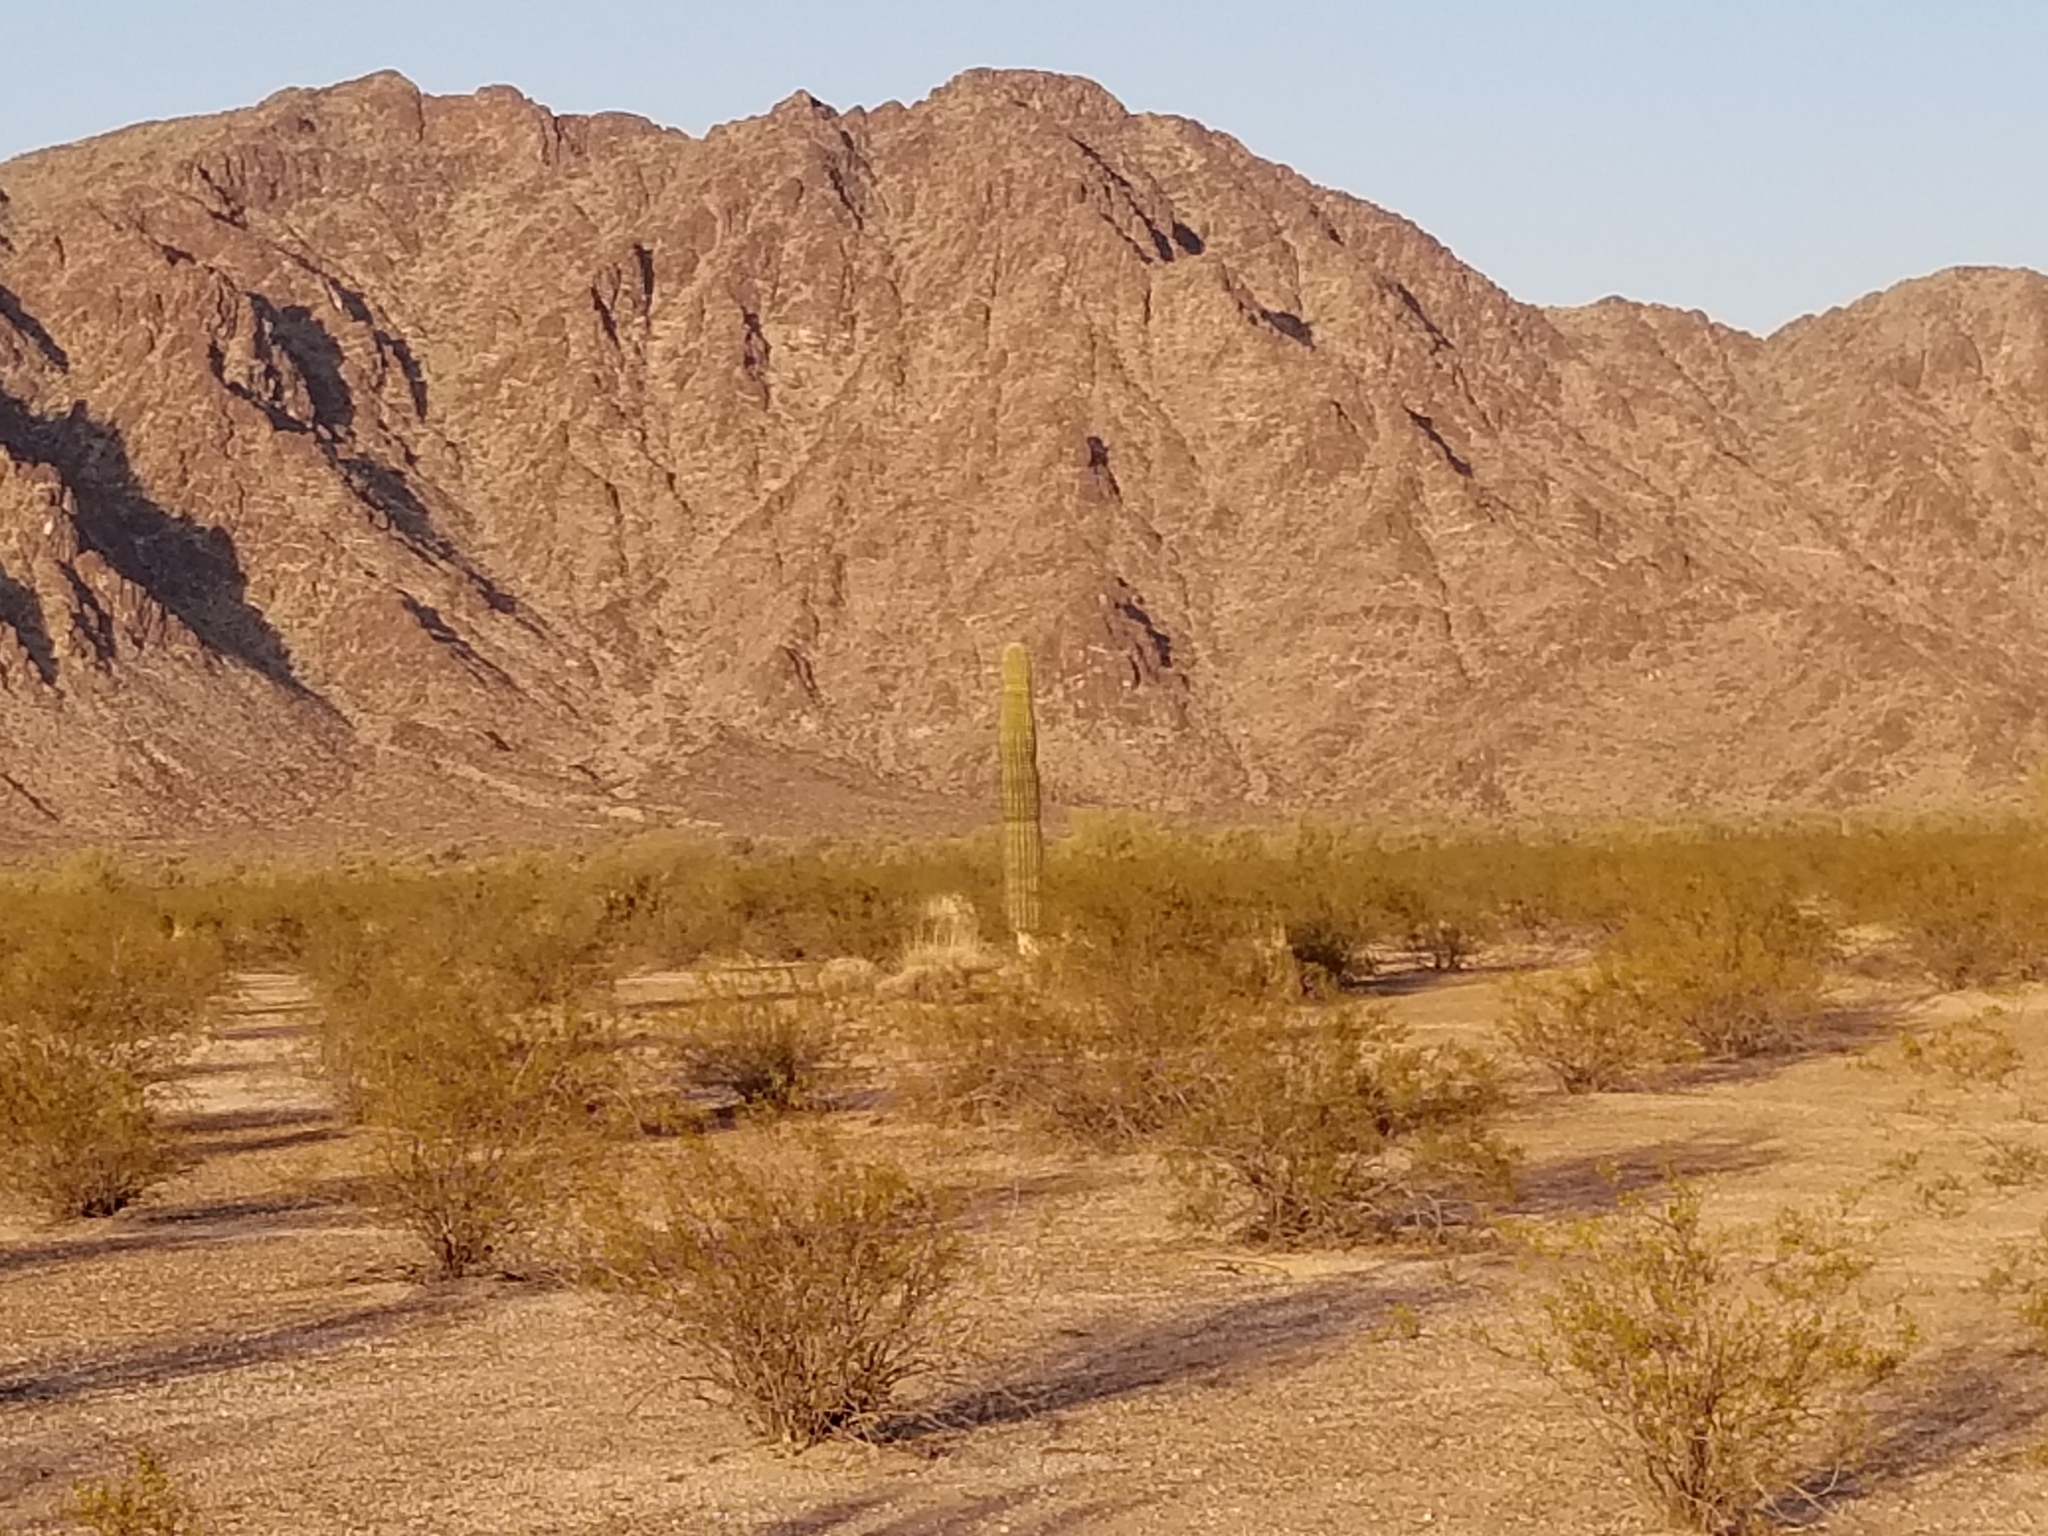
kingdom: Plantae
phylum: Tracheophyta
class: Magnoliopsida
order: Caryophyllales
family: Cactaceae
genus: Carnegiea
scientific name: Carnegiea gigantea
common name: Saguaro
